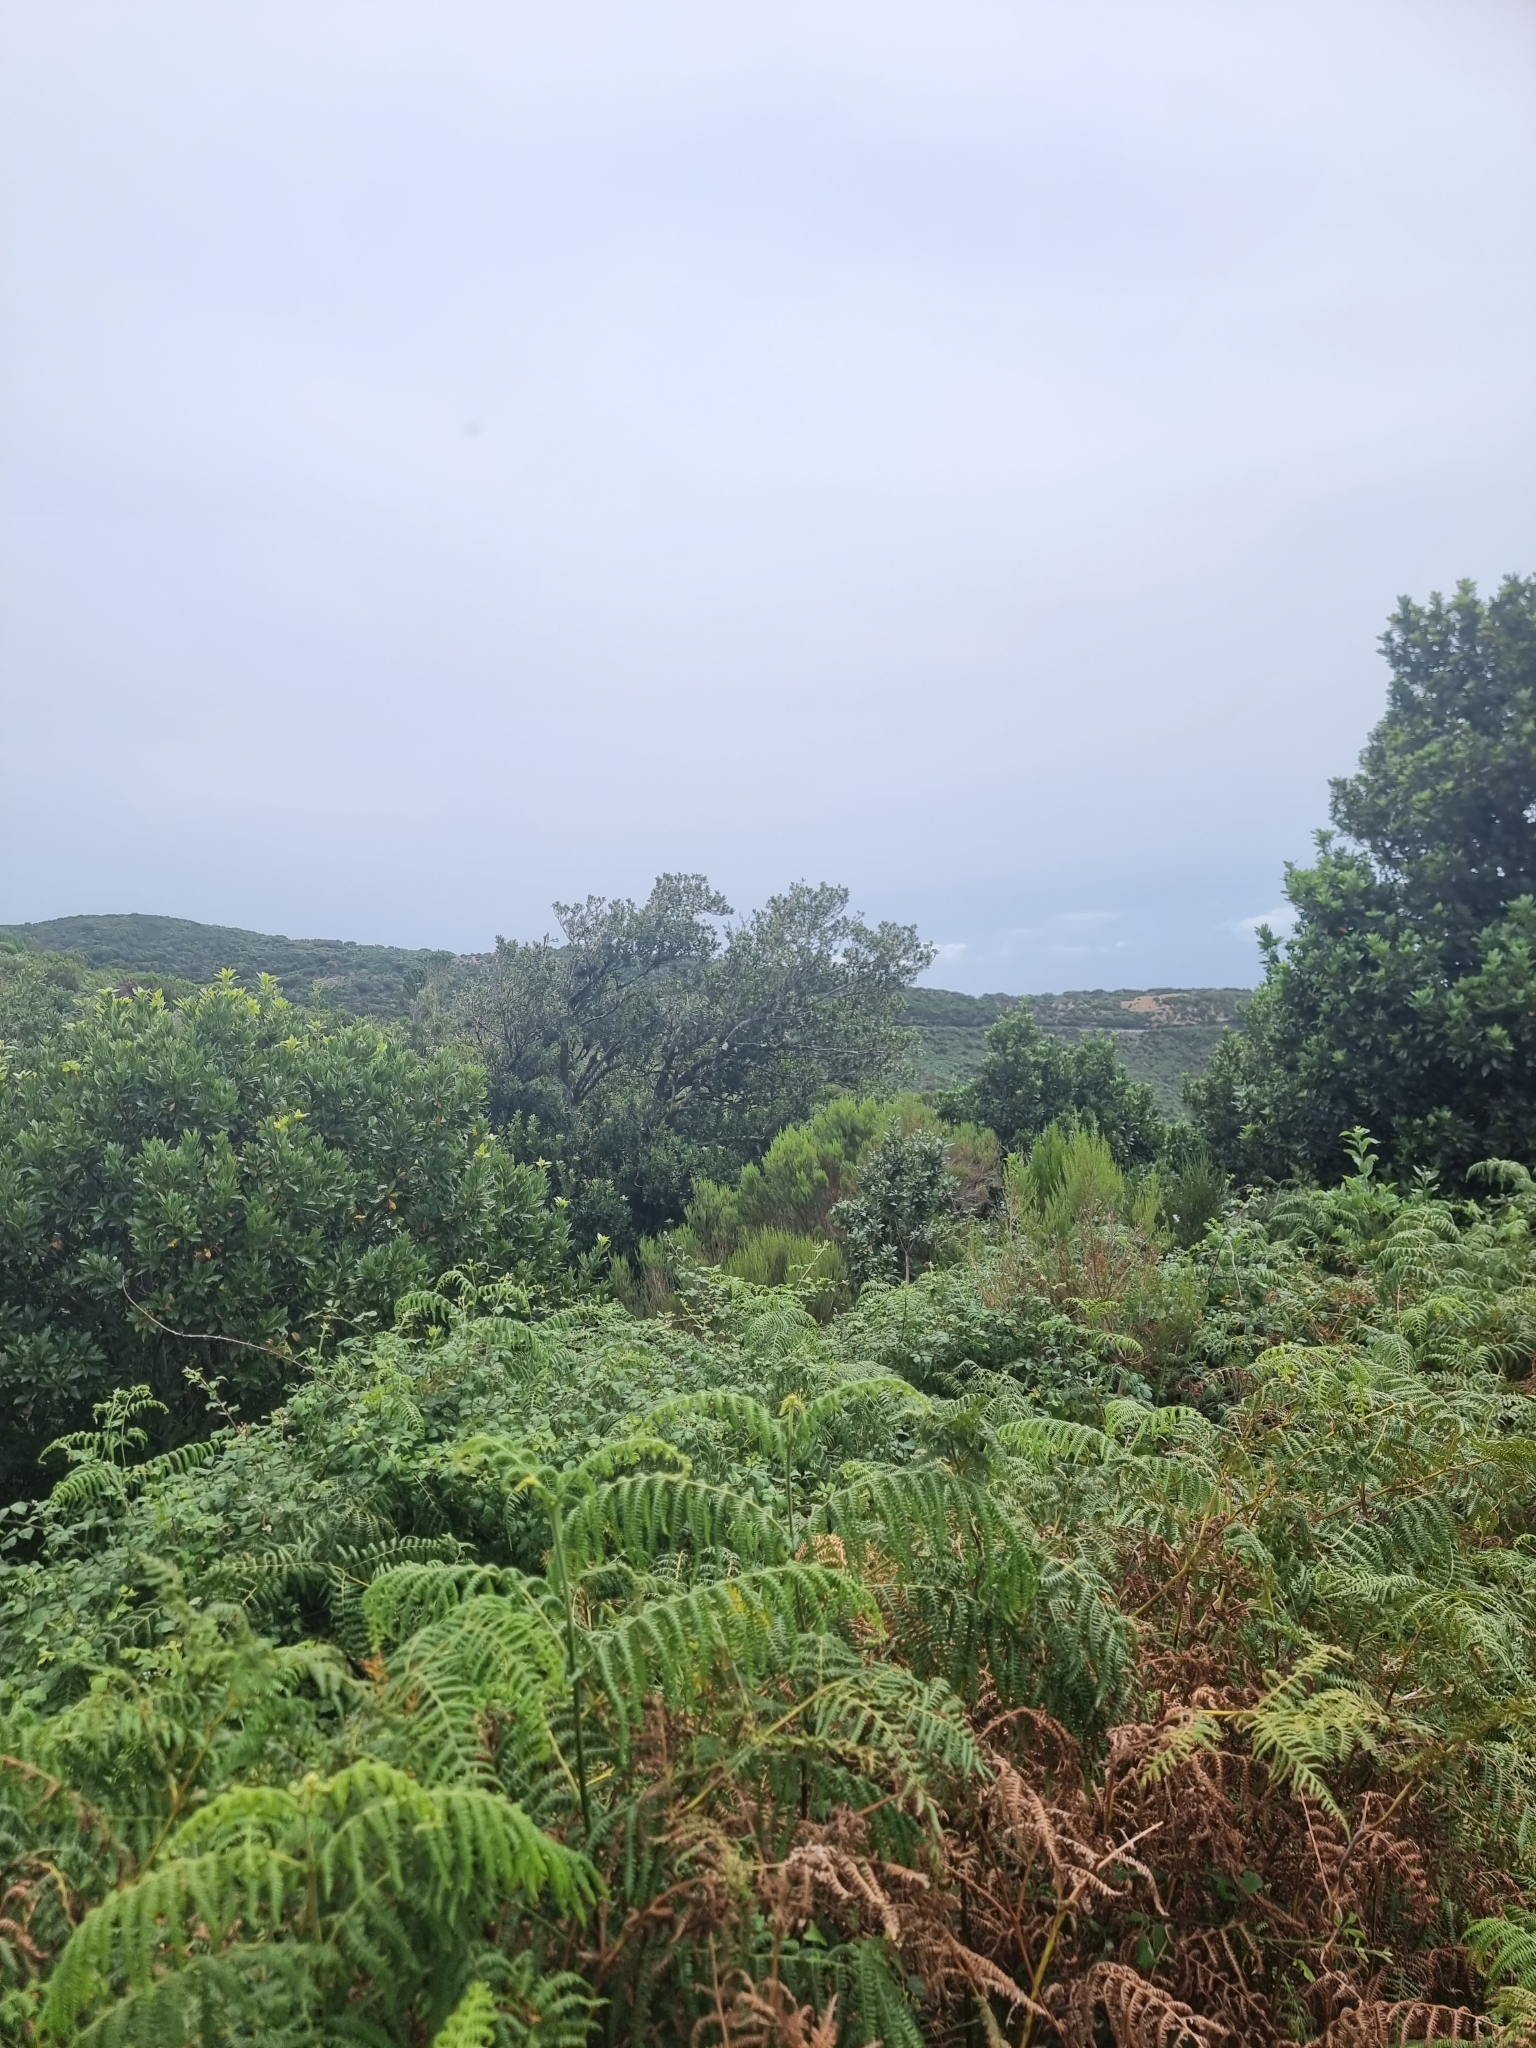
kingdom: Plantae
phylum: Tracheophyta
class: Polypodiopsida
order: Polypodiales
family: Dennstaedtiaceae
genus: Pteridium
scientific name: Pteridium aquilinum
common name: Bracken
